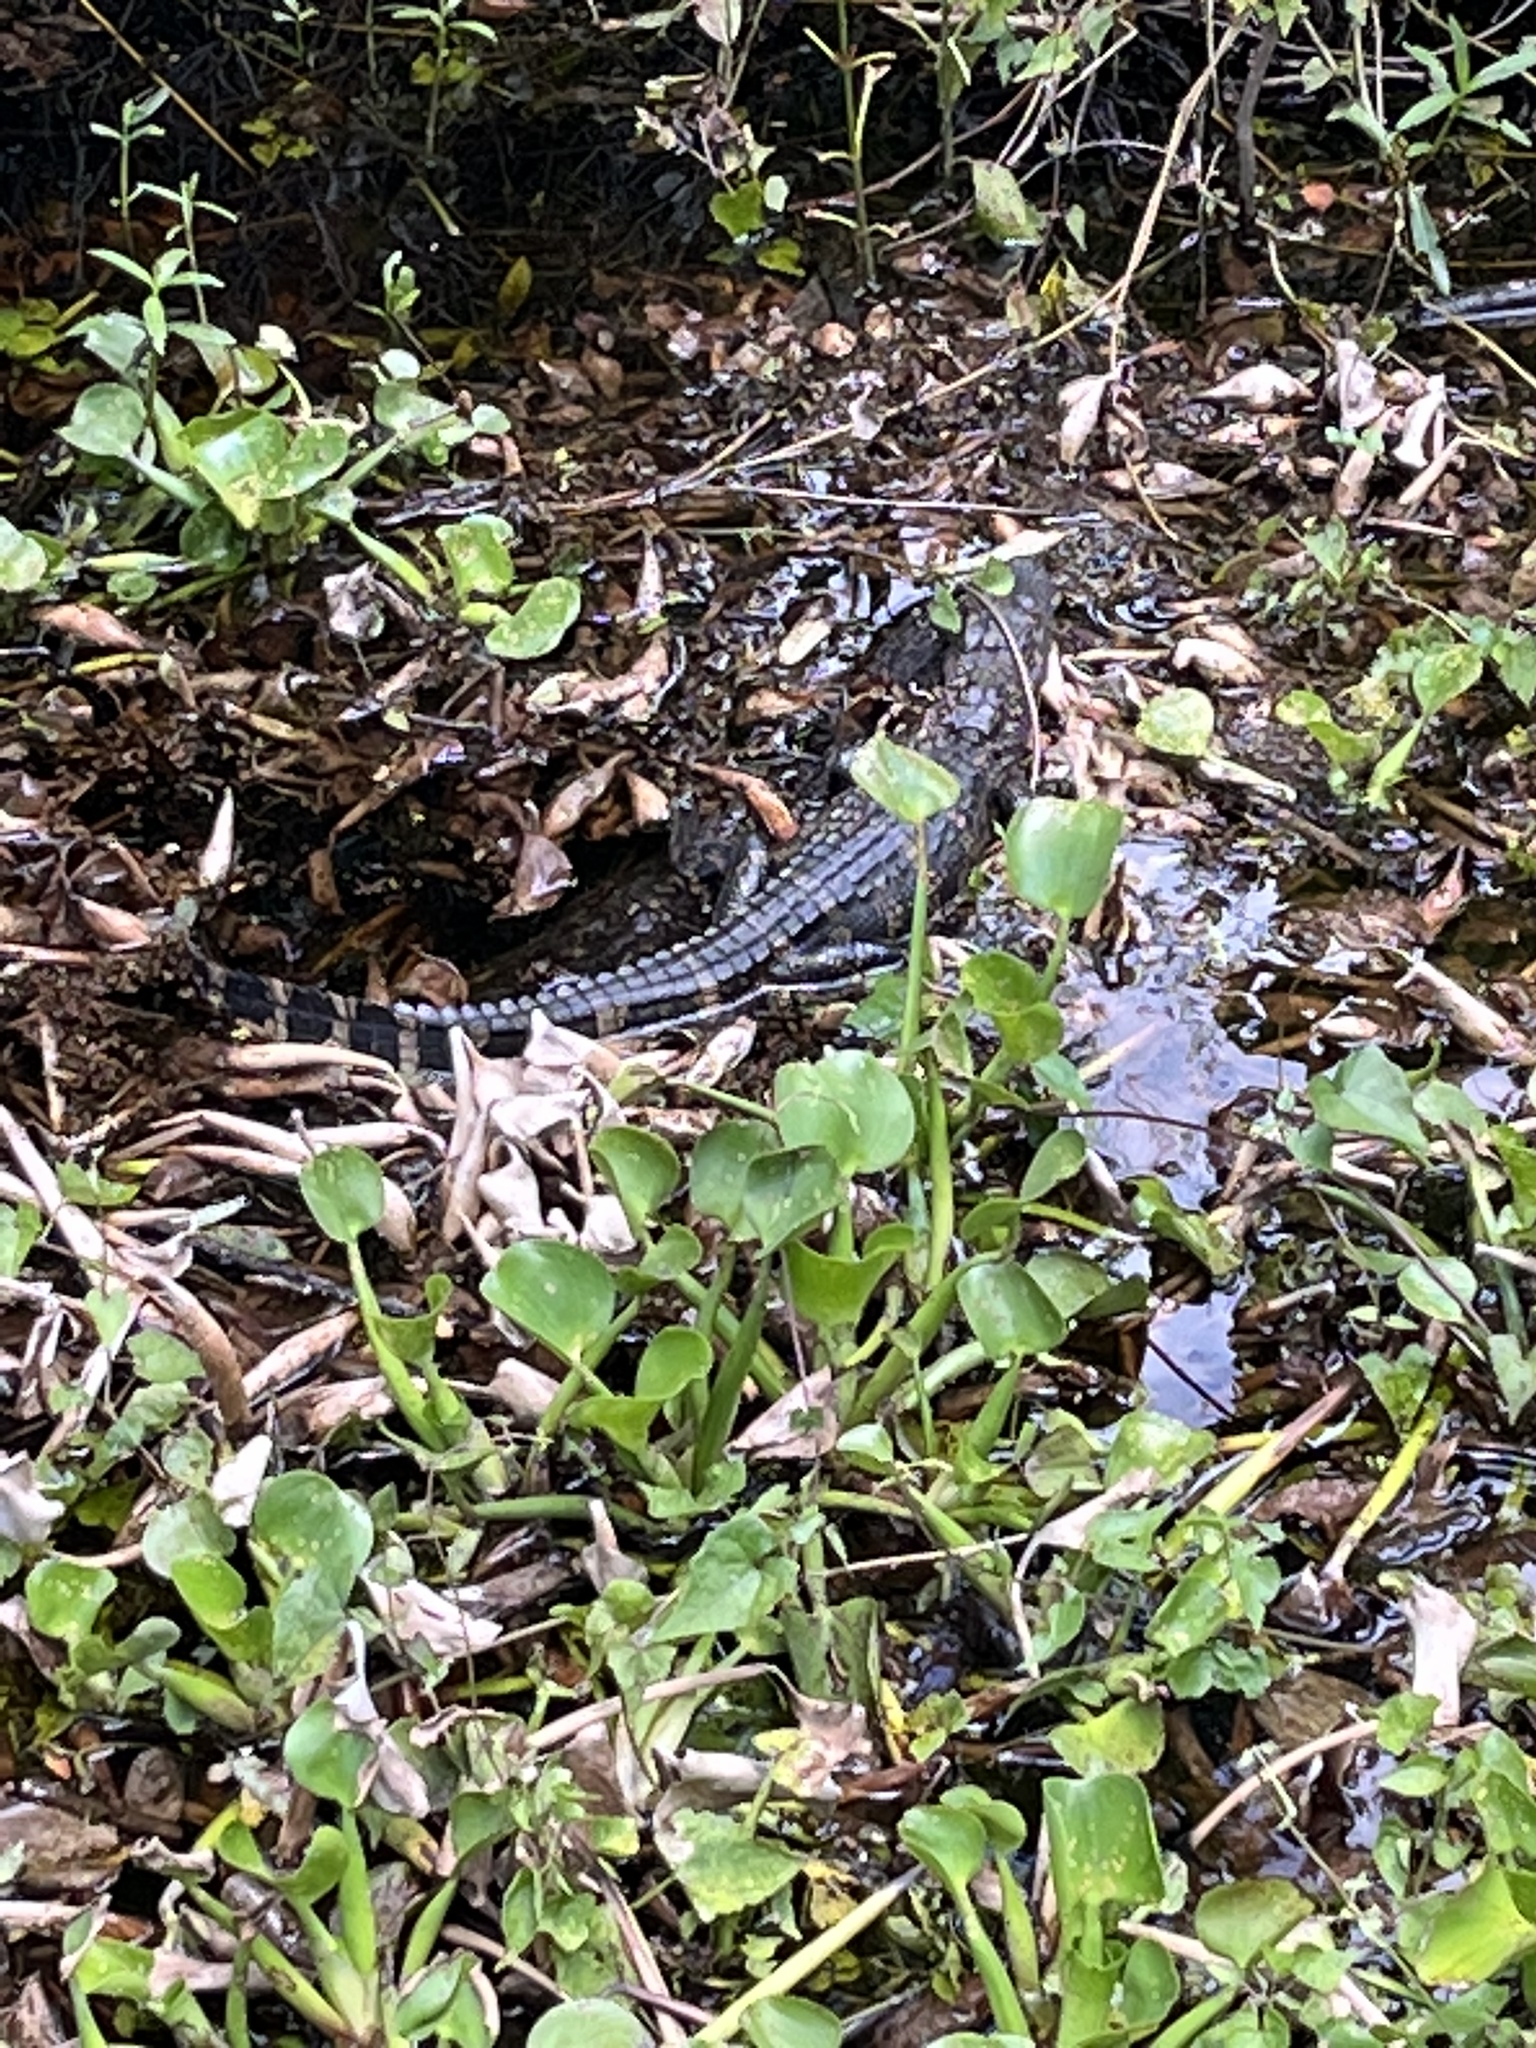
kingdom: Animalia
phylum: Chordata
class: Crocodylia
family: Alligatoridae
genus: Alligator
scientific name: Alligator mississippiensis
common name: American alligator
